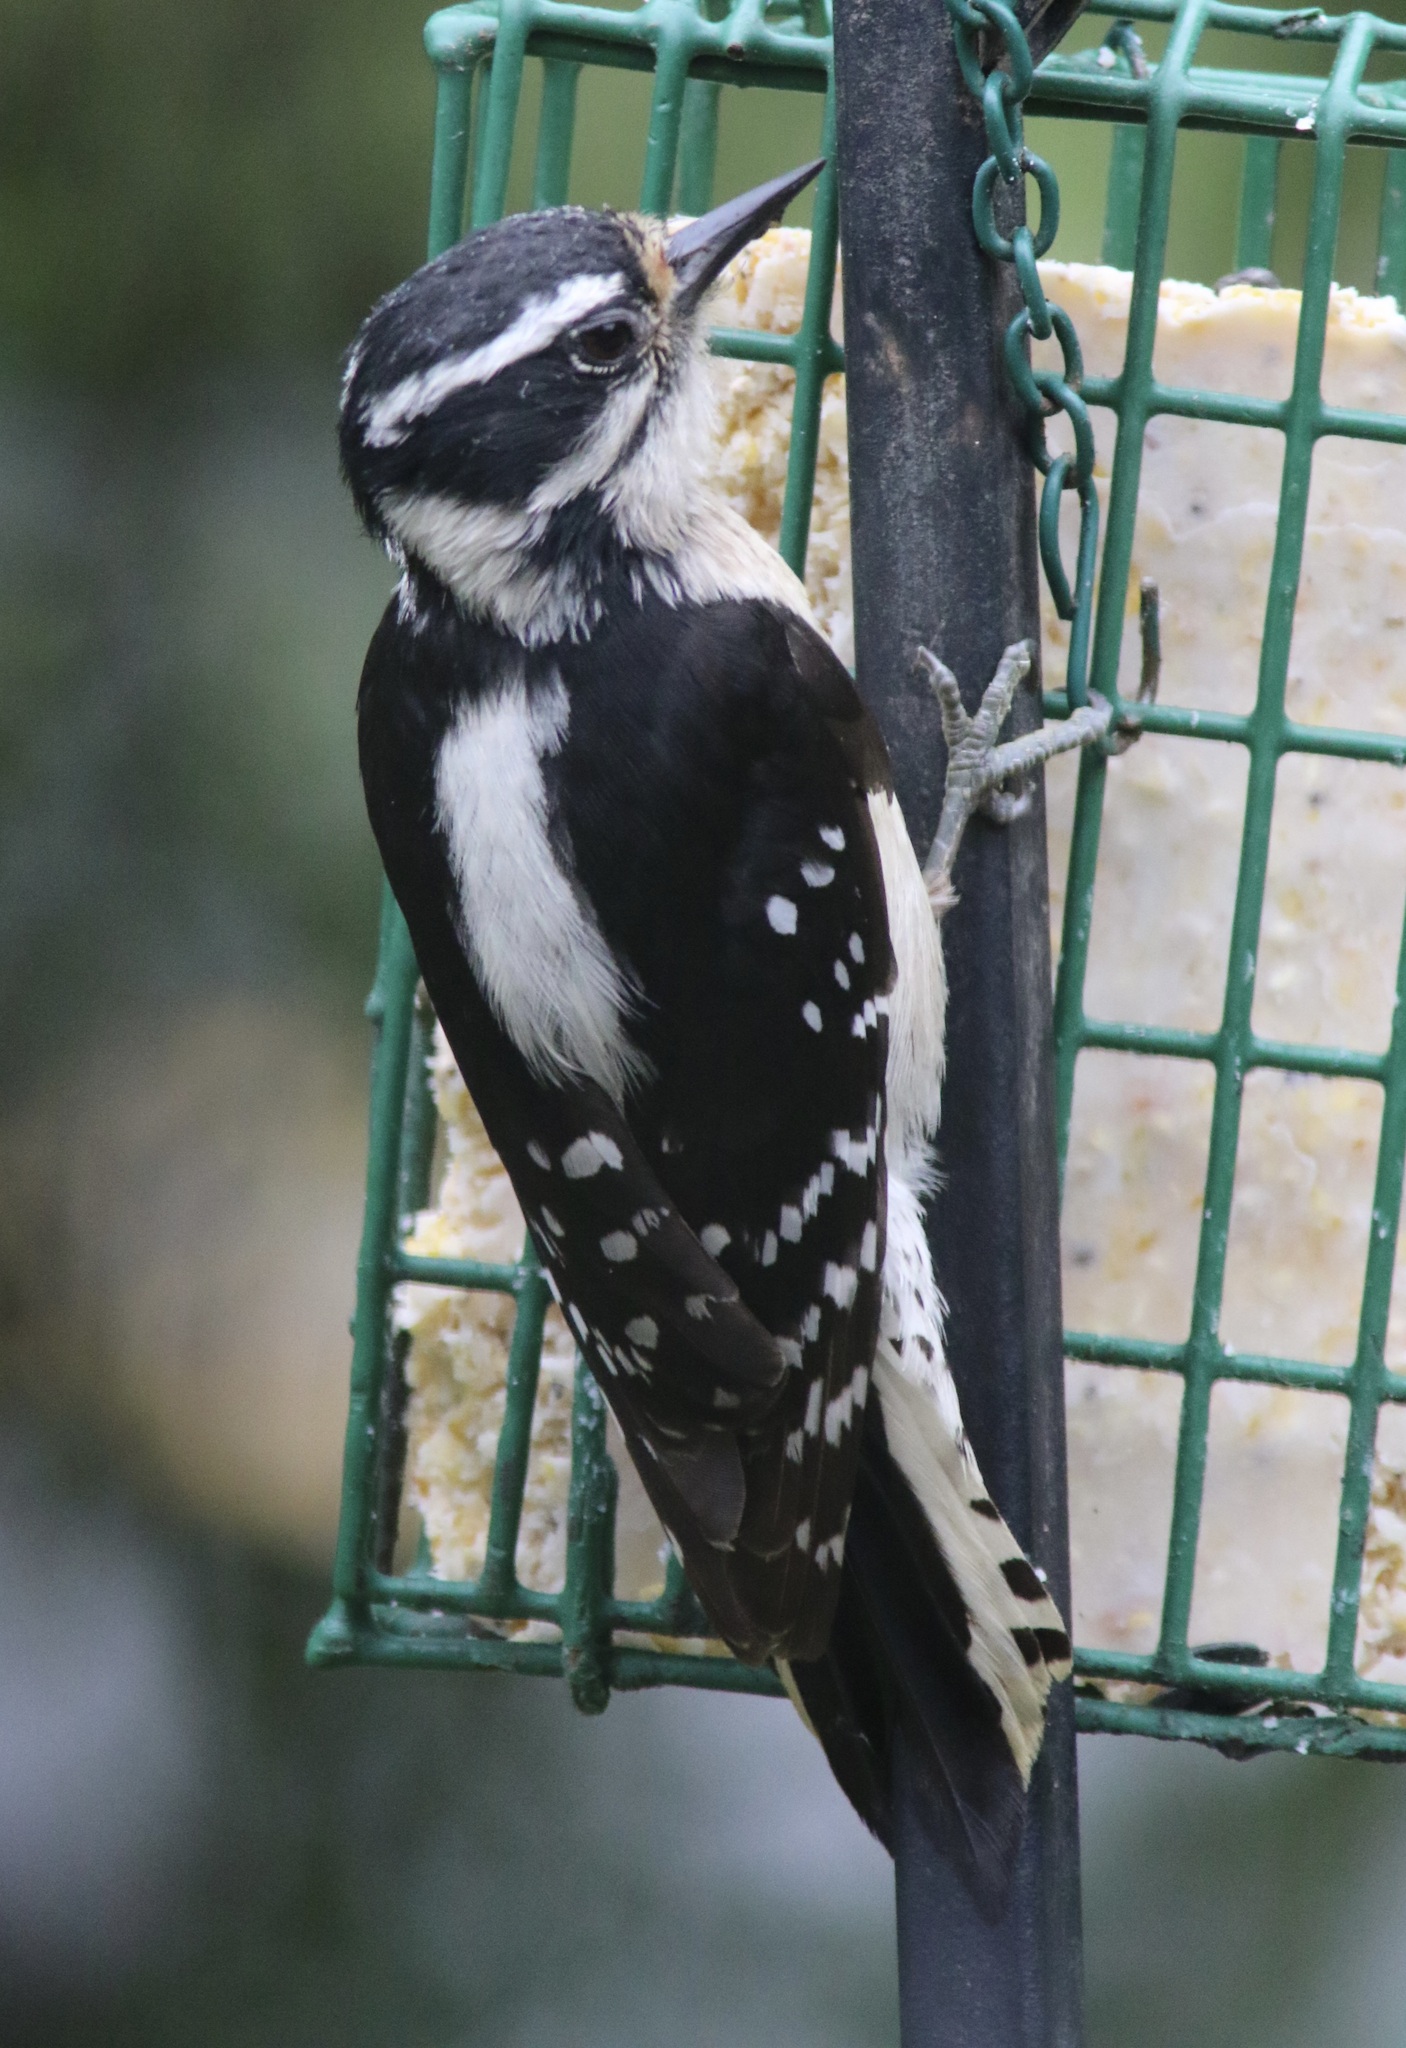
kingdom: Animalia
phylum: Chordata
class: Aves
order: Piciformes
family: Picidae
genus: Dryobates
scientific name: Dryobates pubescens
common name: Downy woodpecker
